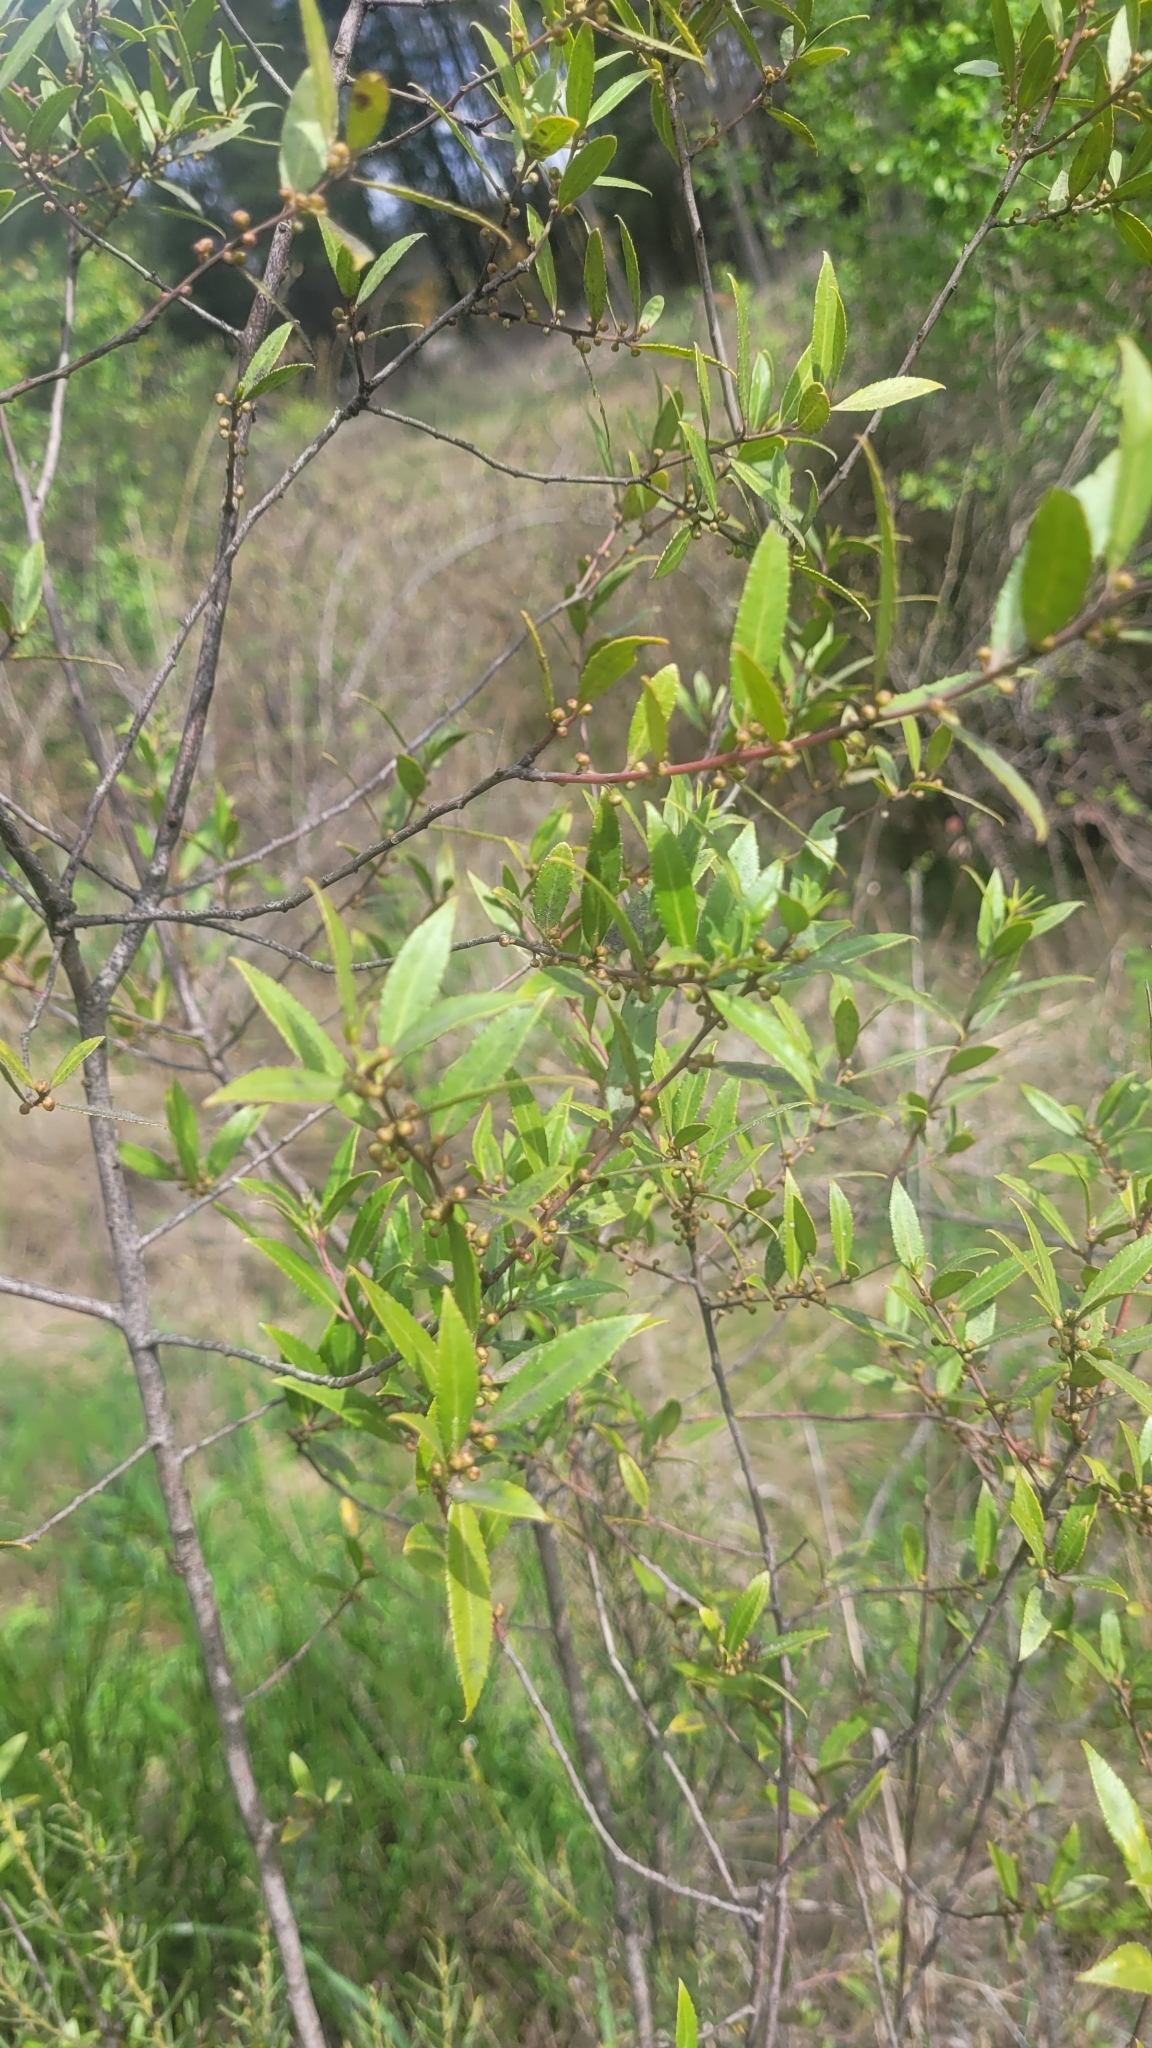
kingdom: Plantae
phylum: Tracheophyta
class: Magnoliopsida
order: Celastrales
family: Celastraceae
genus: Maytenus
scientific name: Maytenus boaria
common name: Mayten
